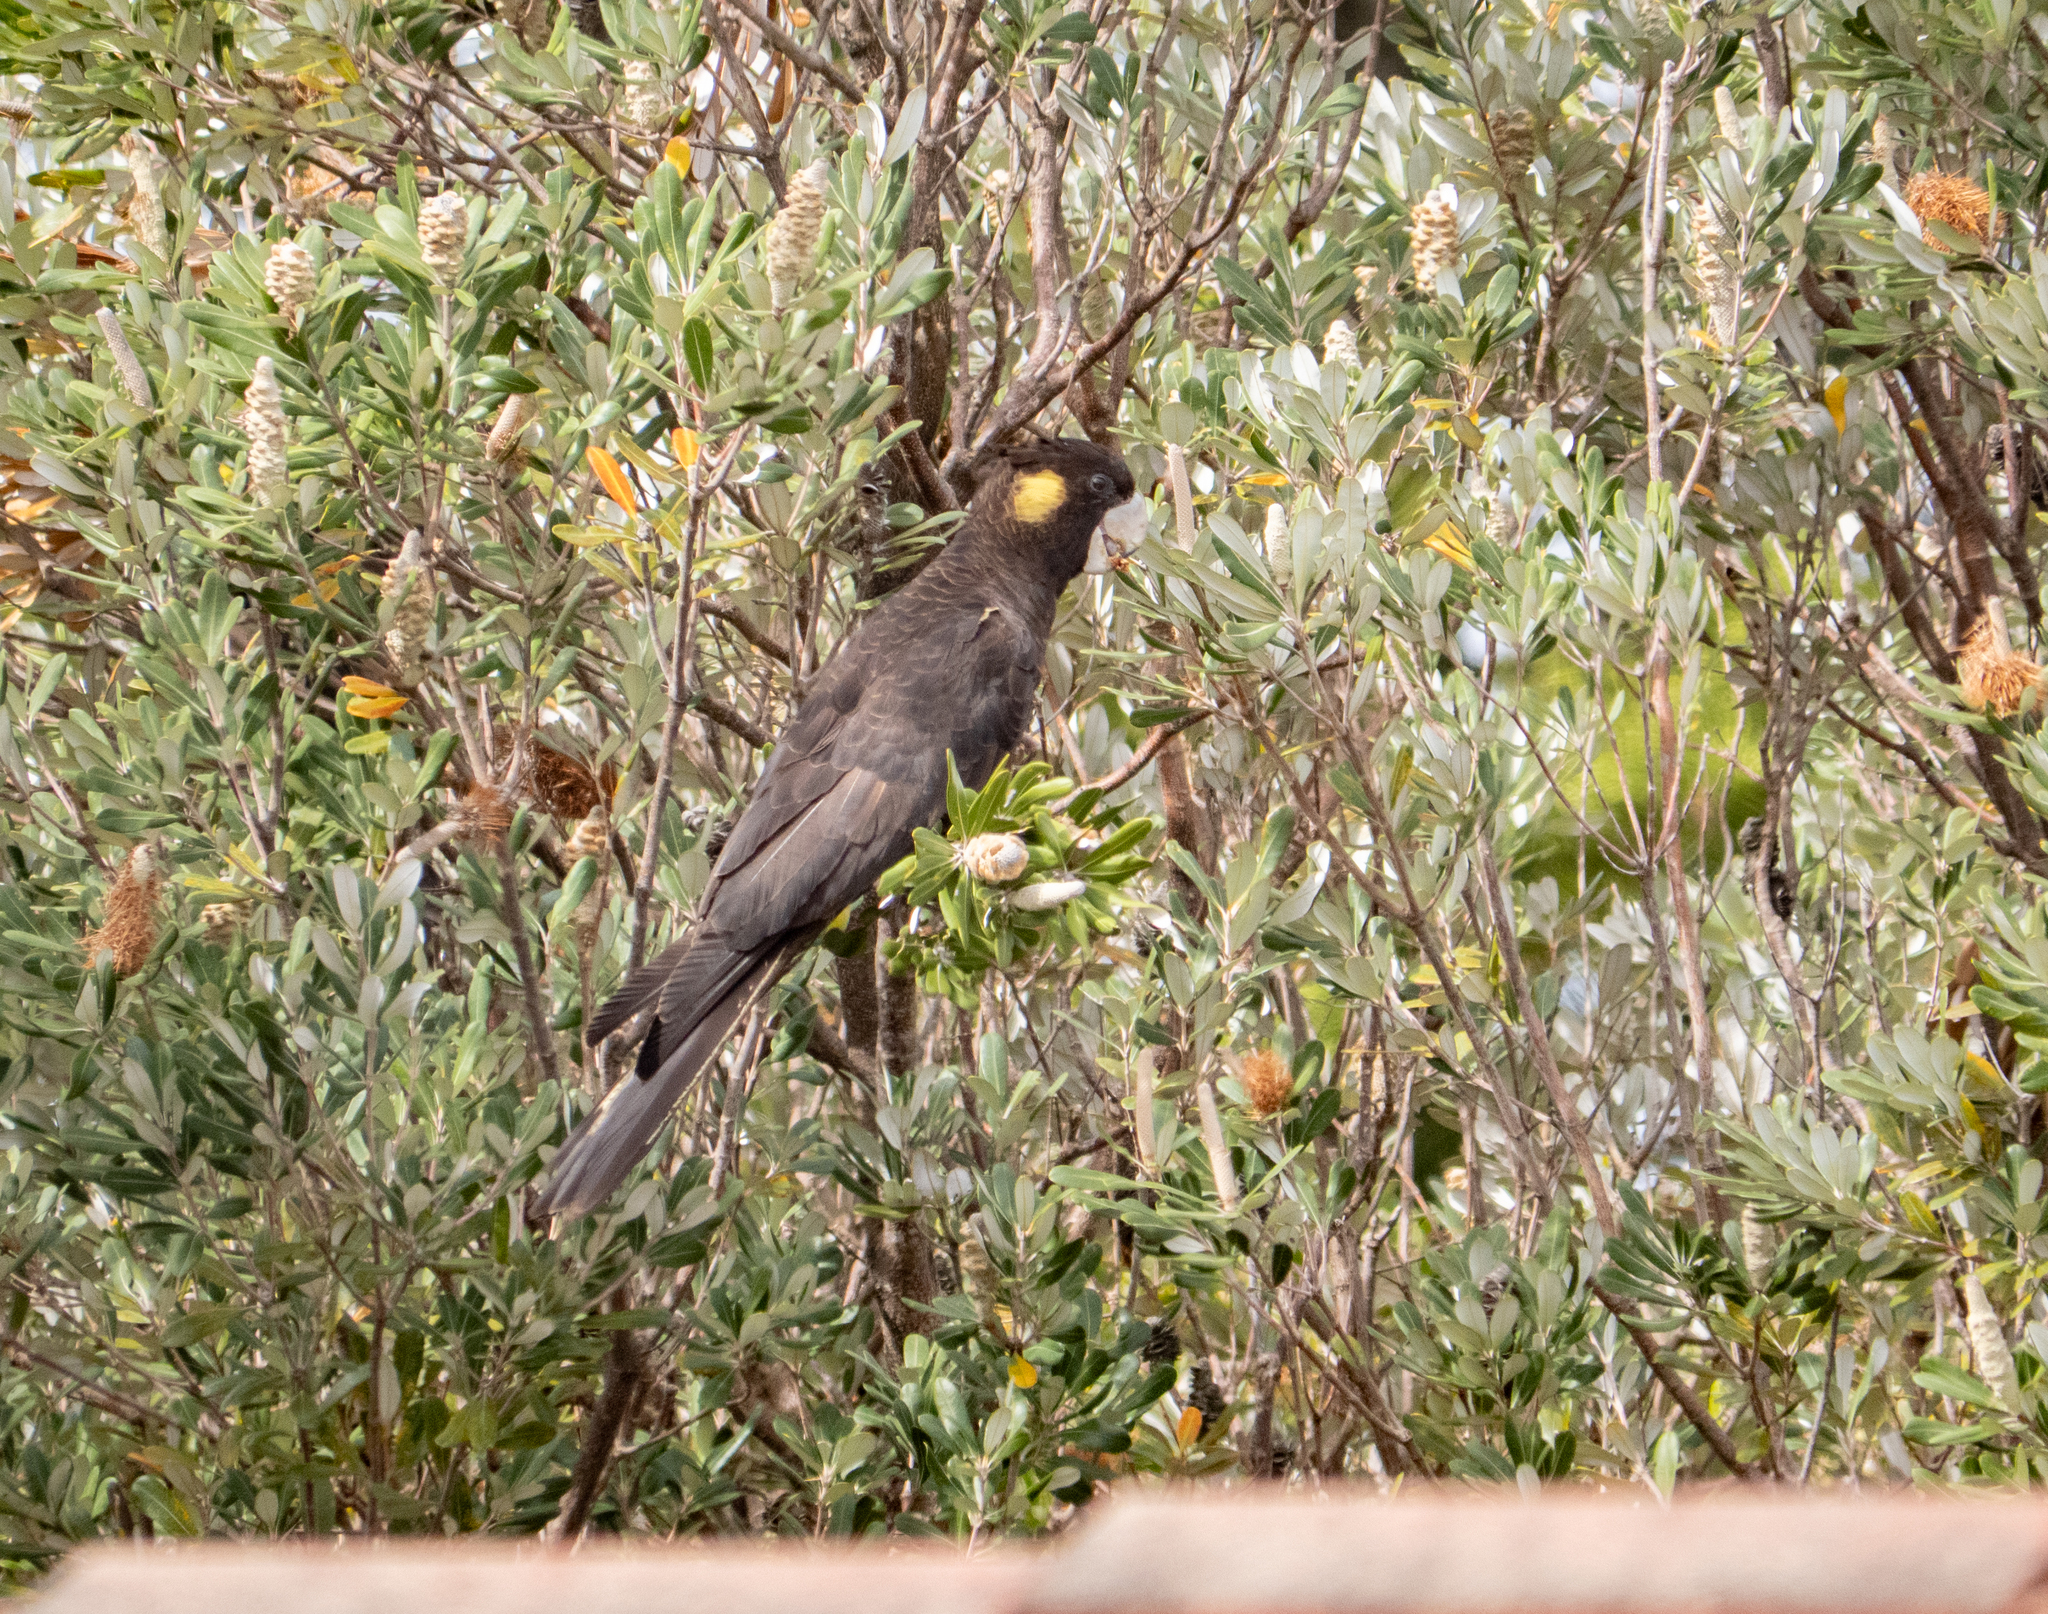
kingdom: Animalia
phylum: Chordata
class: Aves
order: Psittaciformes
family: Cacatuidae
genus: Zanda
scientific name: Zanda funerea
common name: Yellow-tailed black-cockatoo
